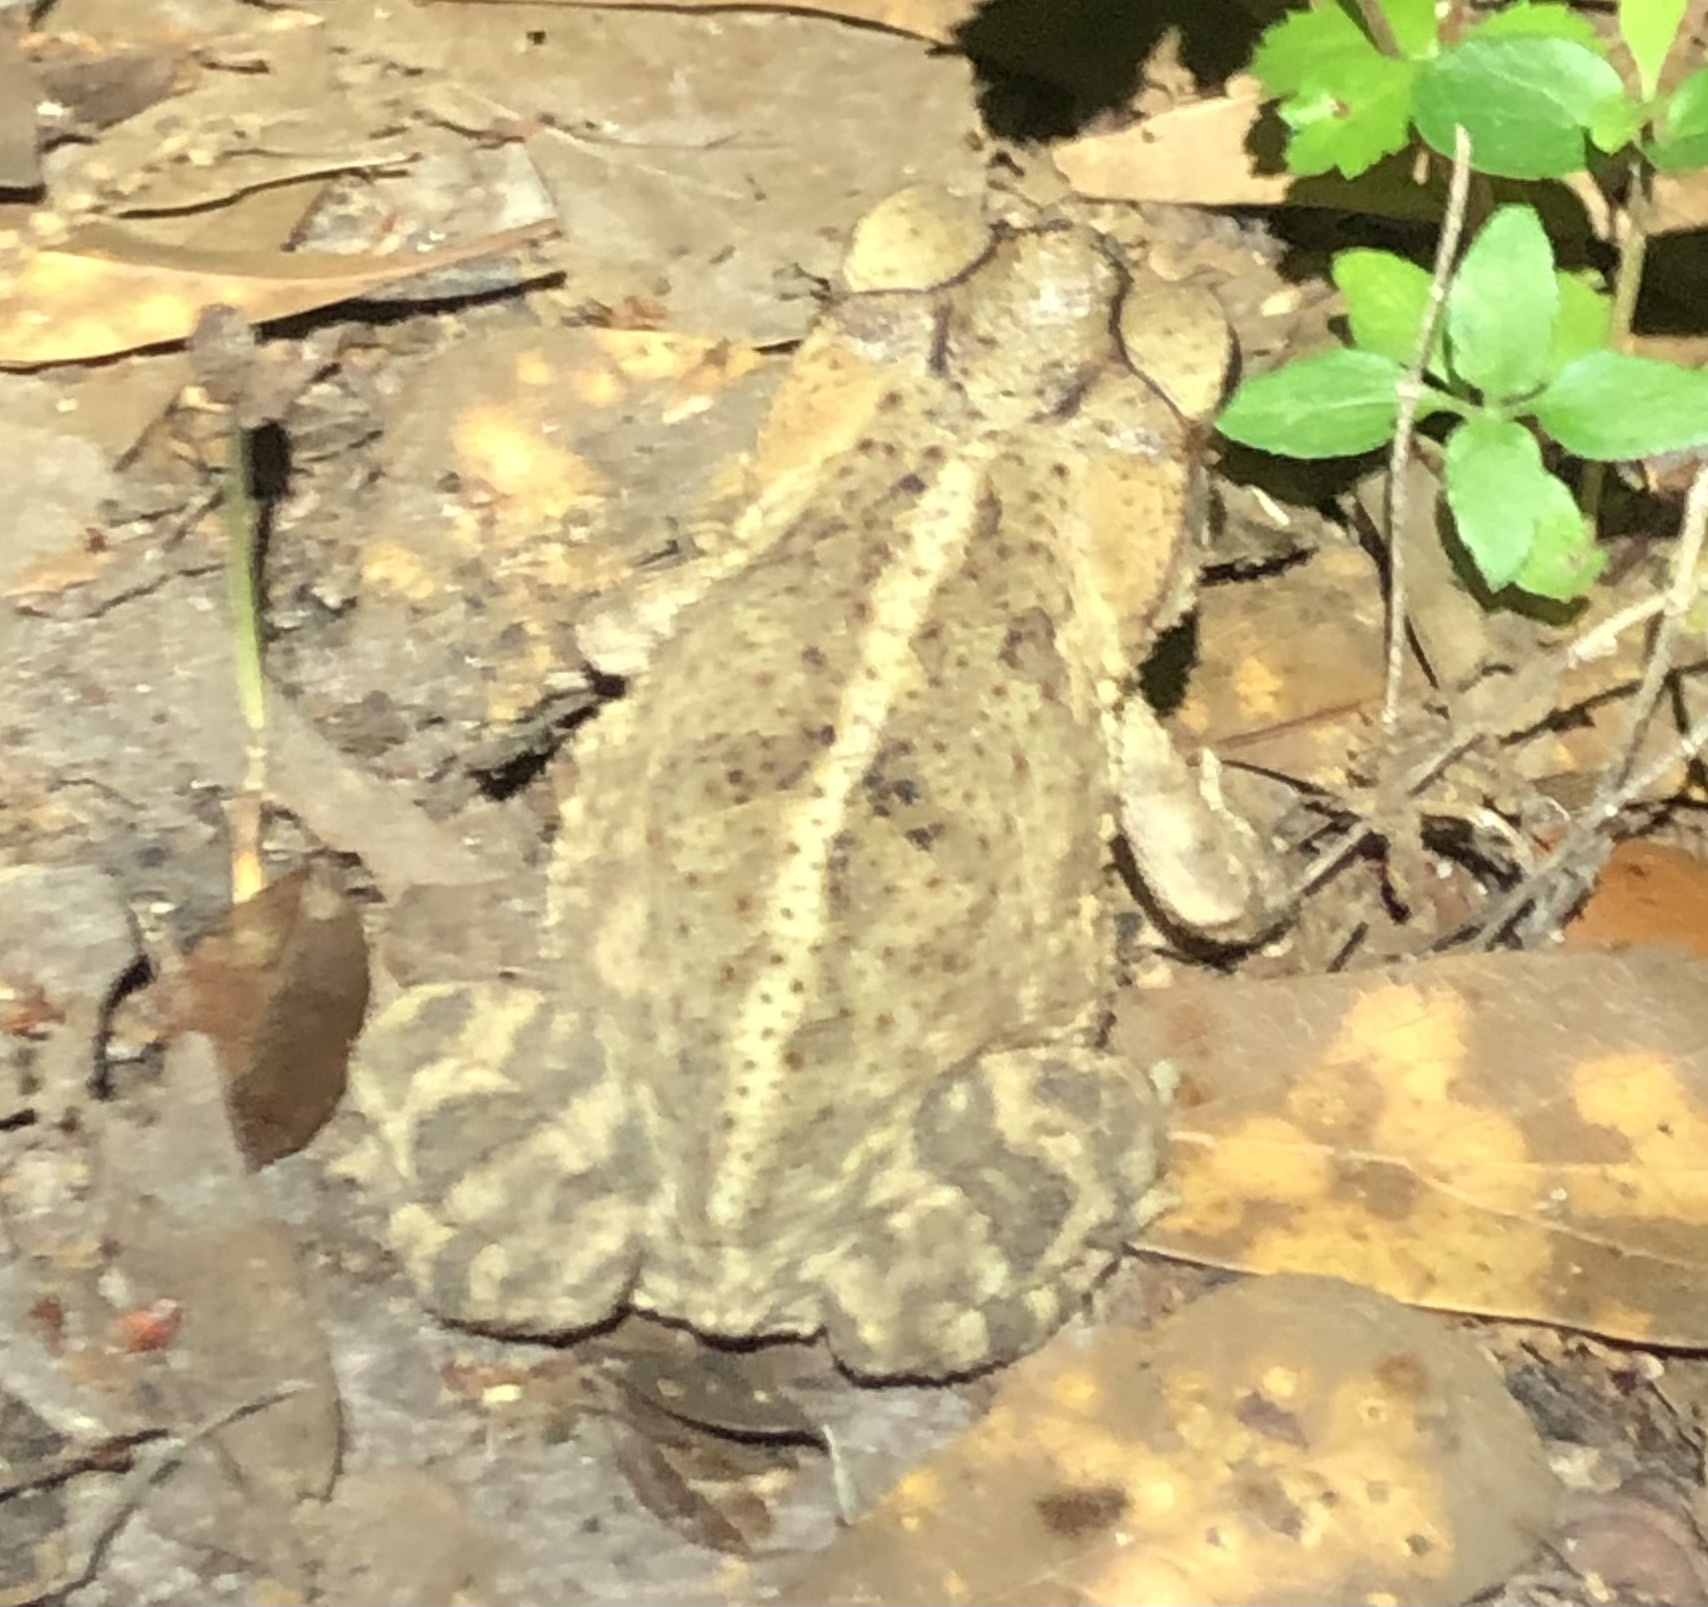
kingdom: Animalia
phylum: Chordata
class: Amphibia
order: Anura
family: Bufonidae
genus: Incilius
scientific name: Incilius nebulifer
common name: Gulf coast toad
